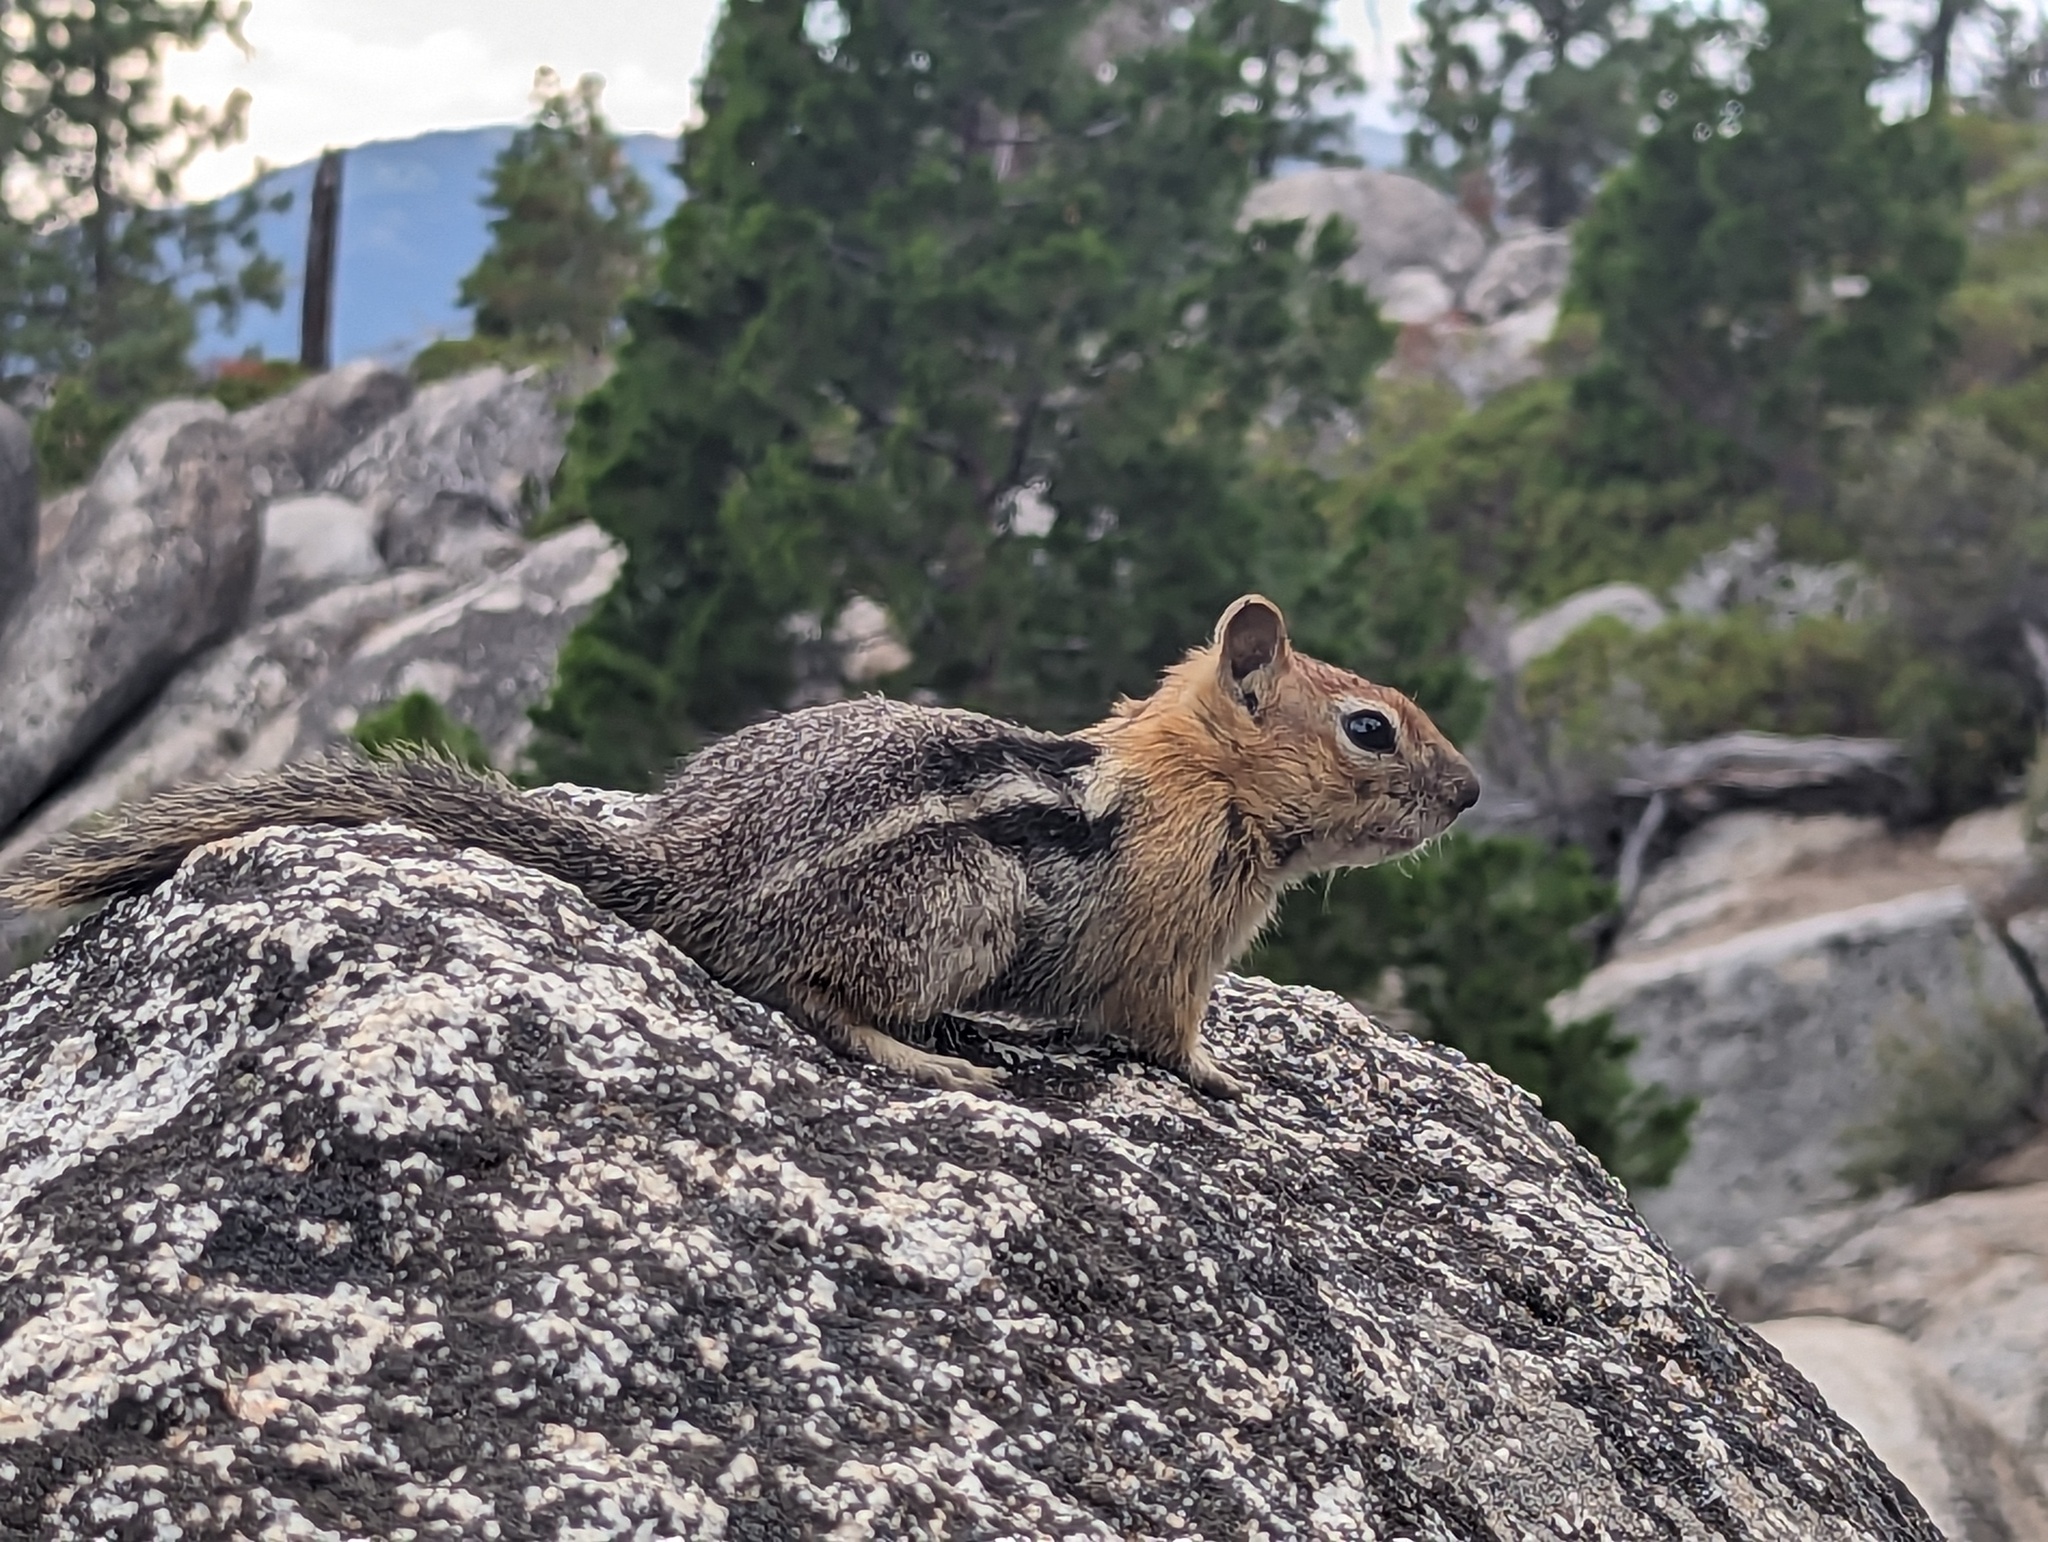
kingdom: Animalia
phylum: Chordata
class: Mammalia
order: Rodentia
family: Sciuridae
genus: Callospermophilus
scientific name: Callospermophilus lateralis
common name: Golden-mantled ground squirrel
